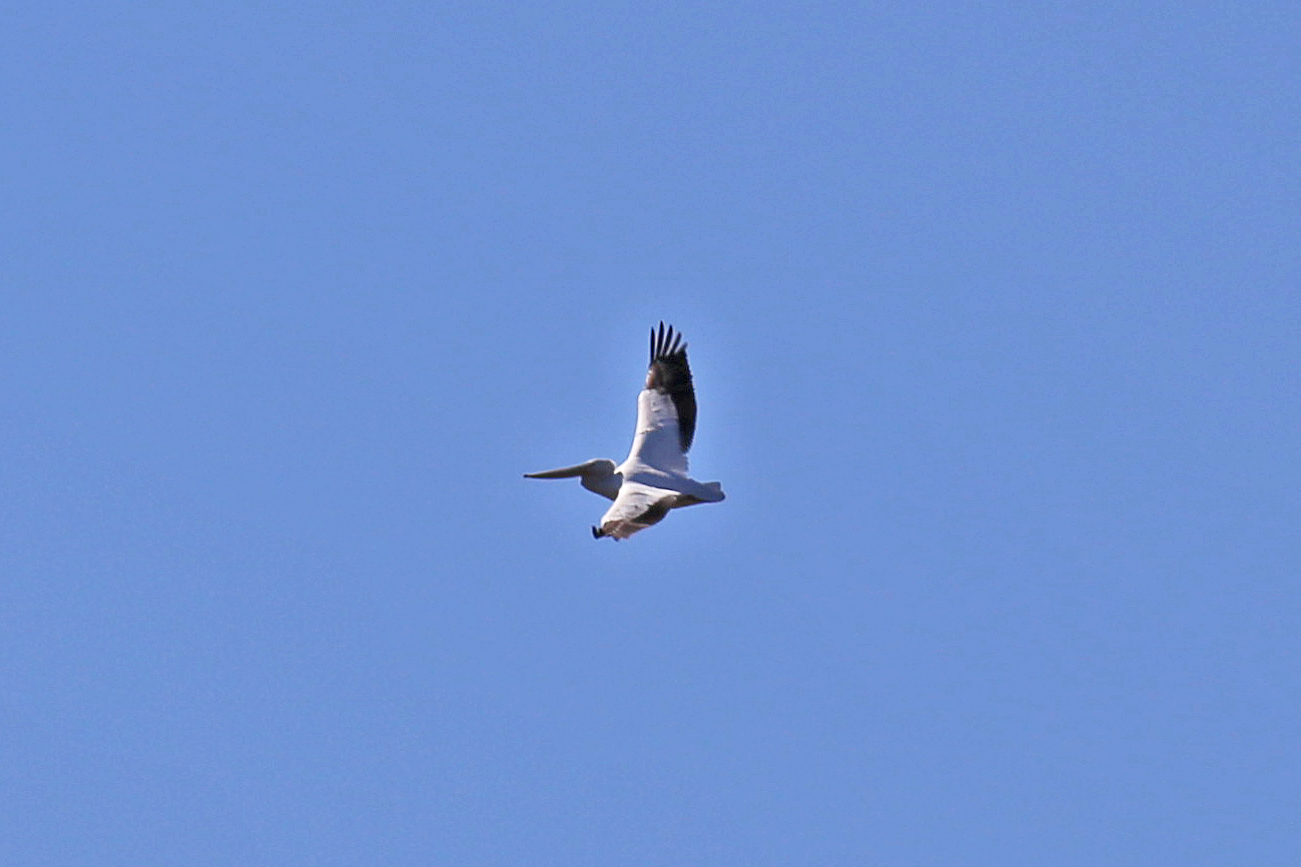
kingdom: Animalia
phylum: Chordata
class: Aves
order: Pelecaniformes
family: Pelecanidae
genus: Pelecanus
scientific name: Pelecanus erythrorhynchos
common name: American white pelican
